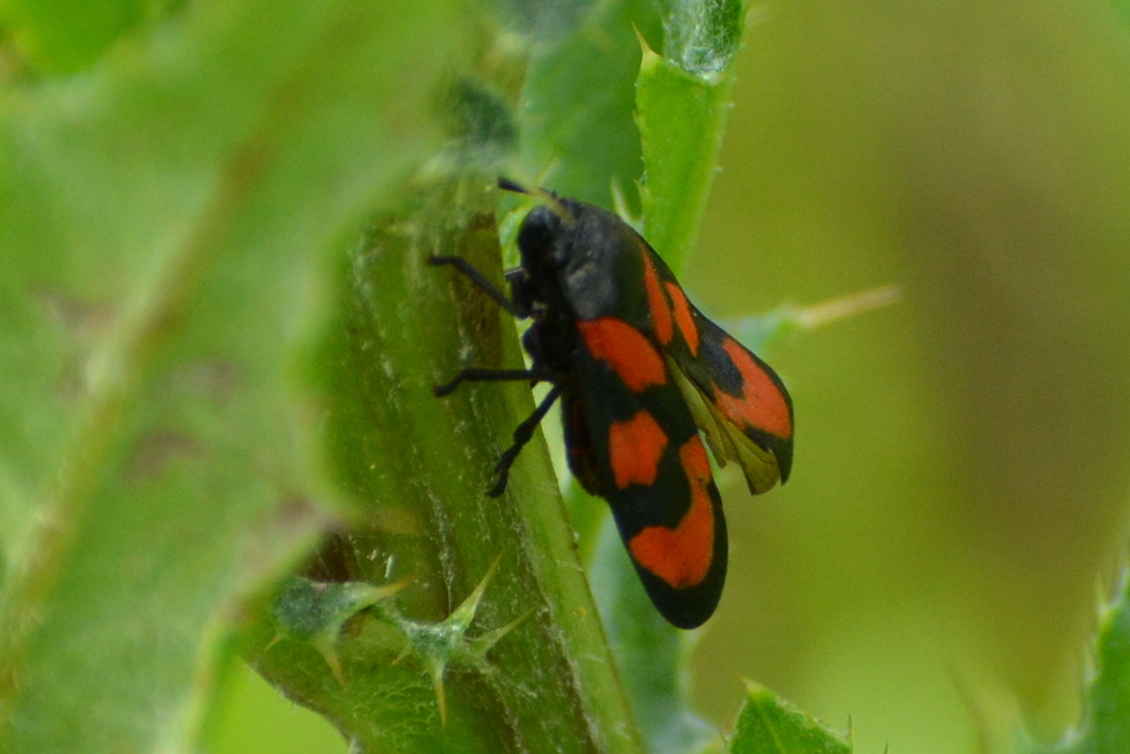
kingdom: Animalia
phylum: Arthropoda
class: Insecta
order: Hemiptera
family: Cercopidae
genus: Cercopis
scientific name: Cercopis vulnerata
